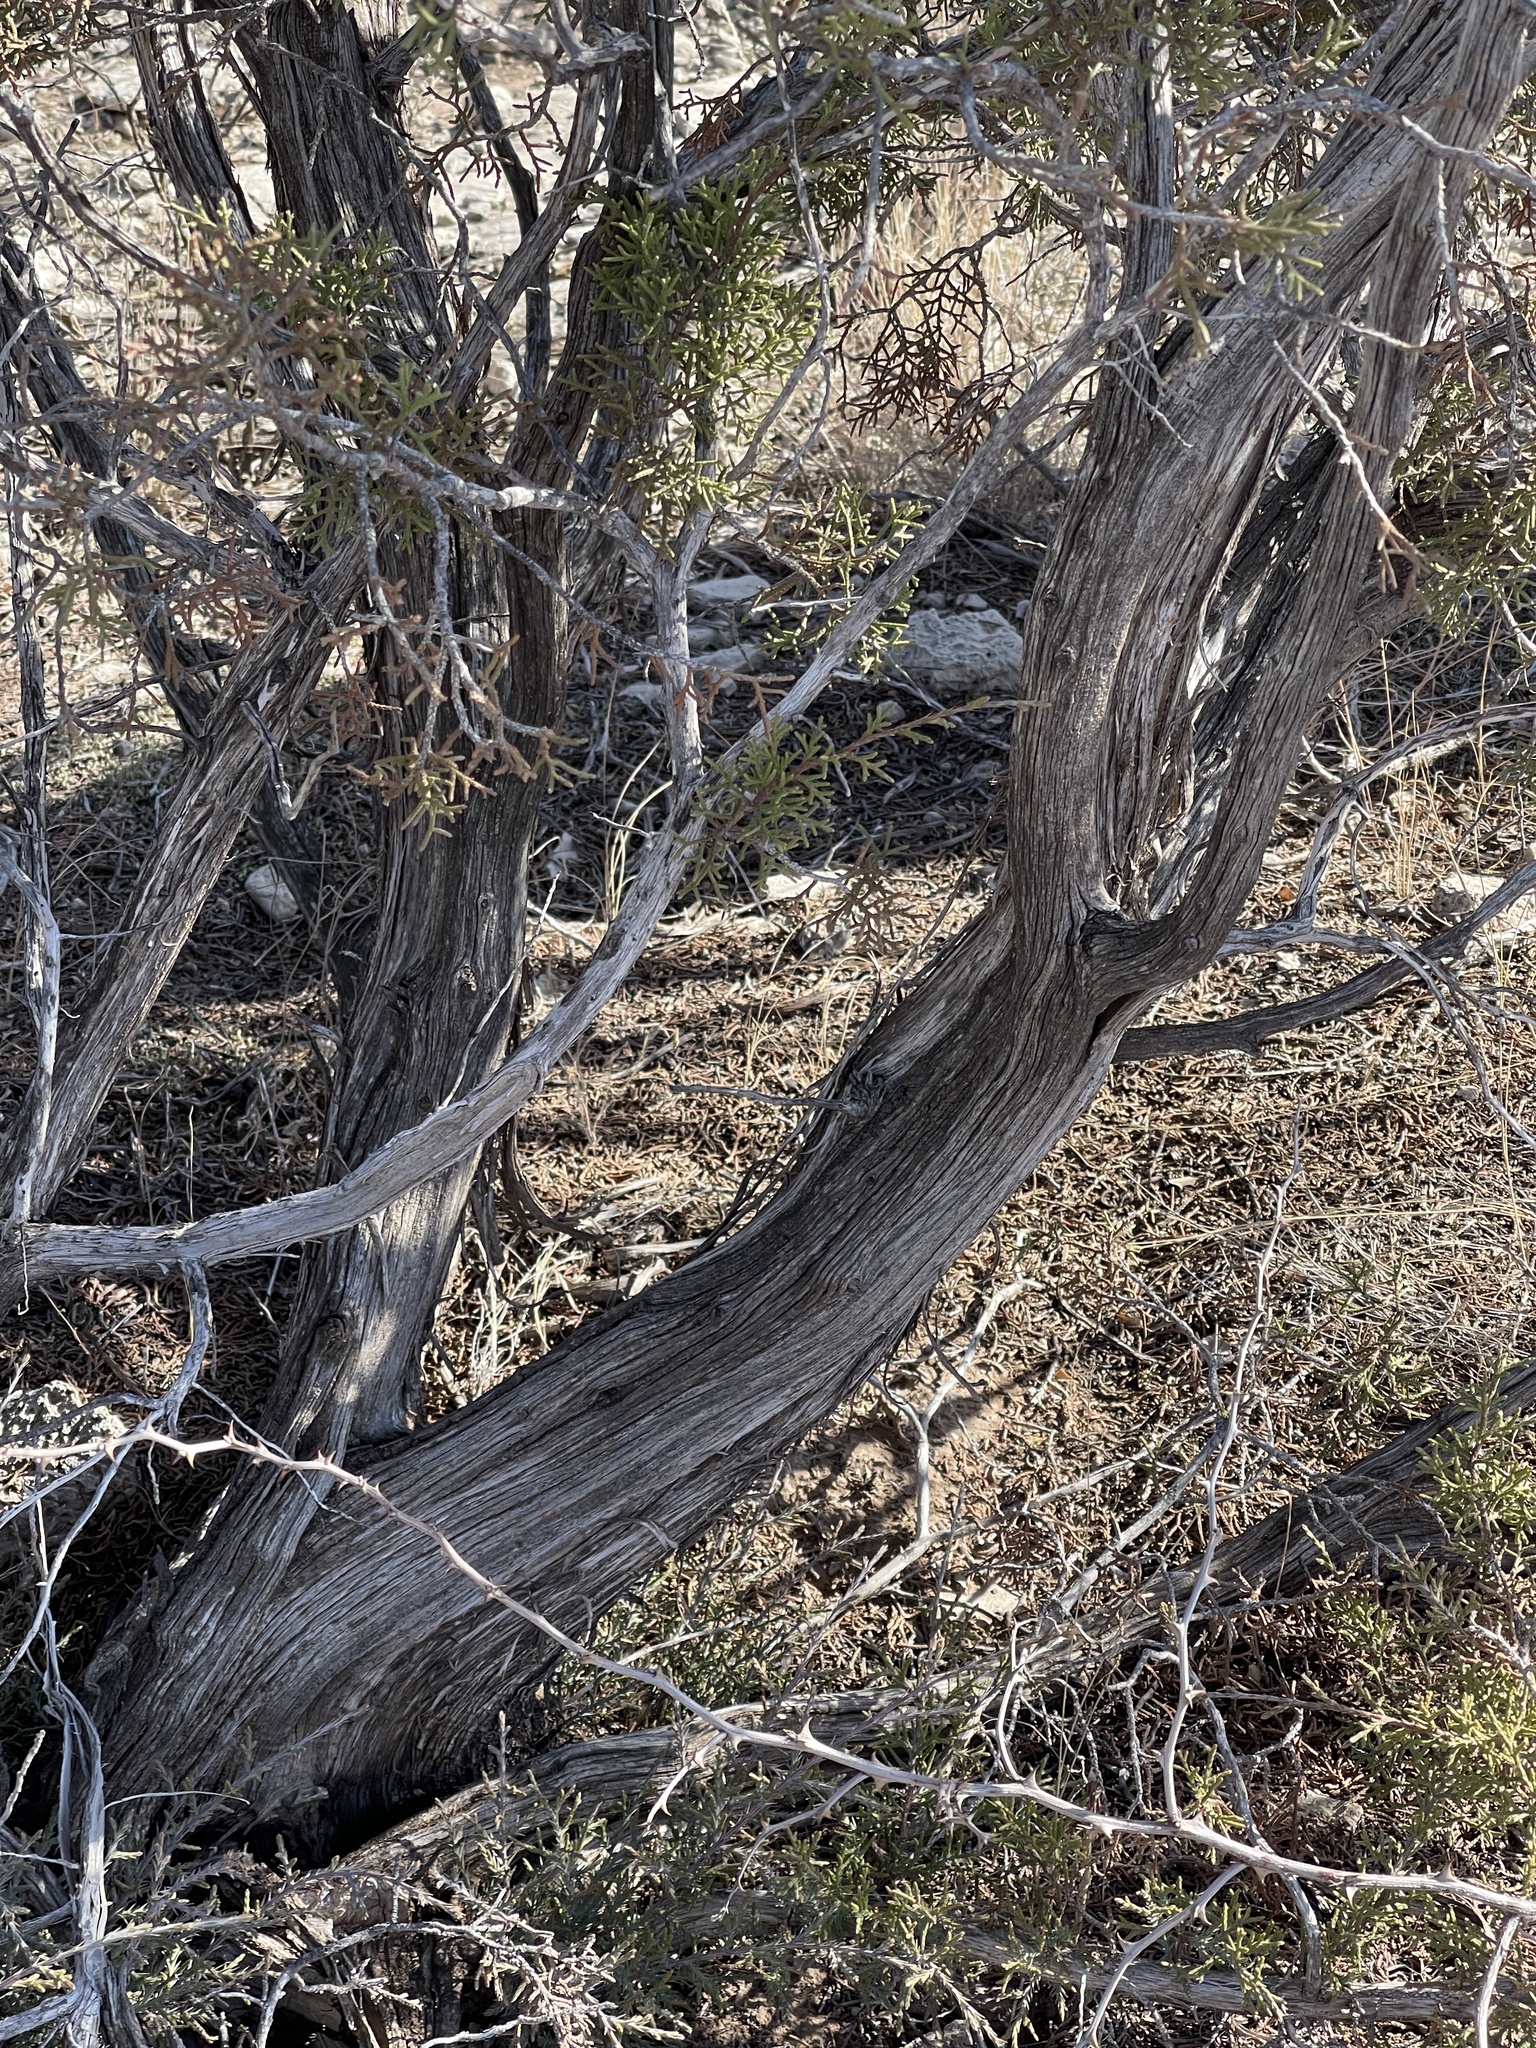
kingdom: Plantae
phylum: Tracheophyta
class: Pinopsida
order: Pinales
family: Cupressaceae
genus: Juniperus
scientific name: Juniperus pinchotii
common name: Pinchot juniper
